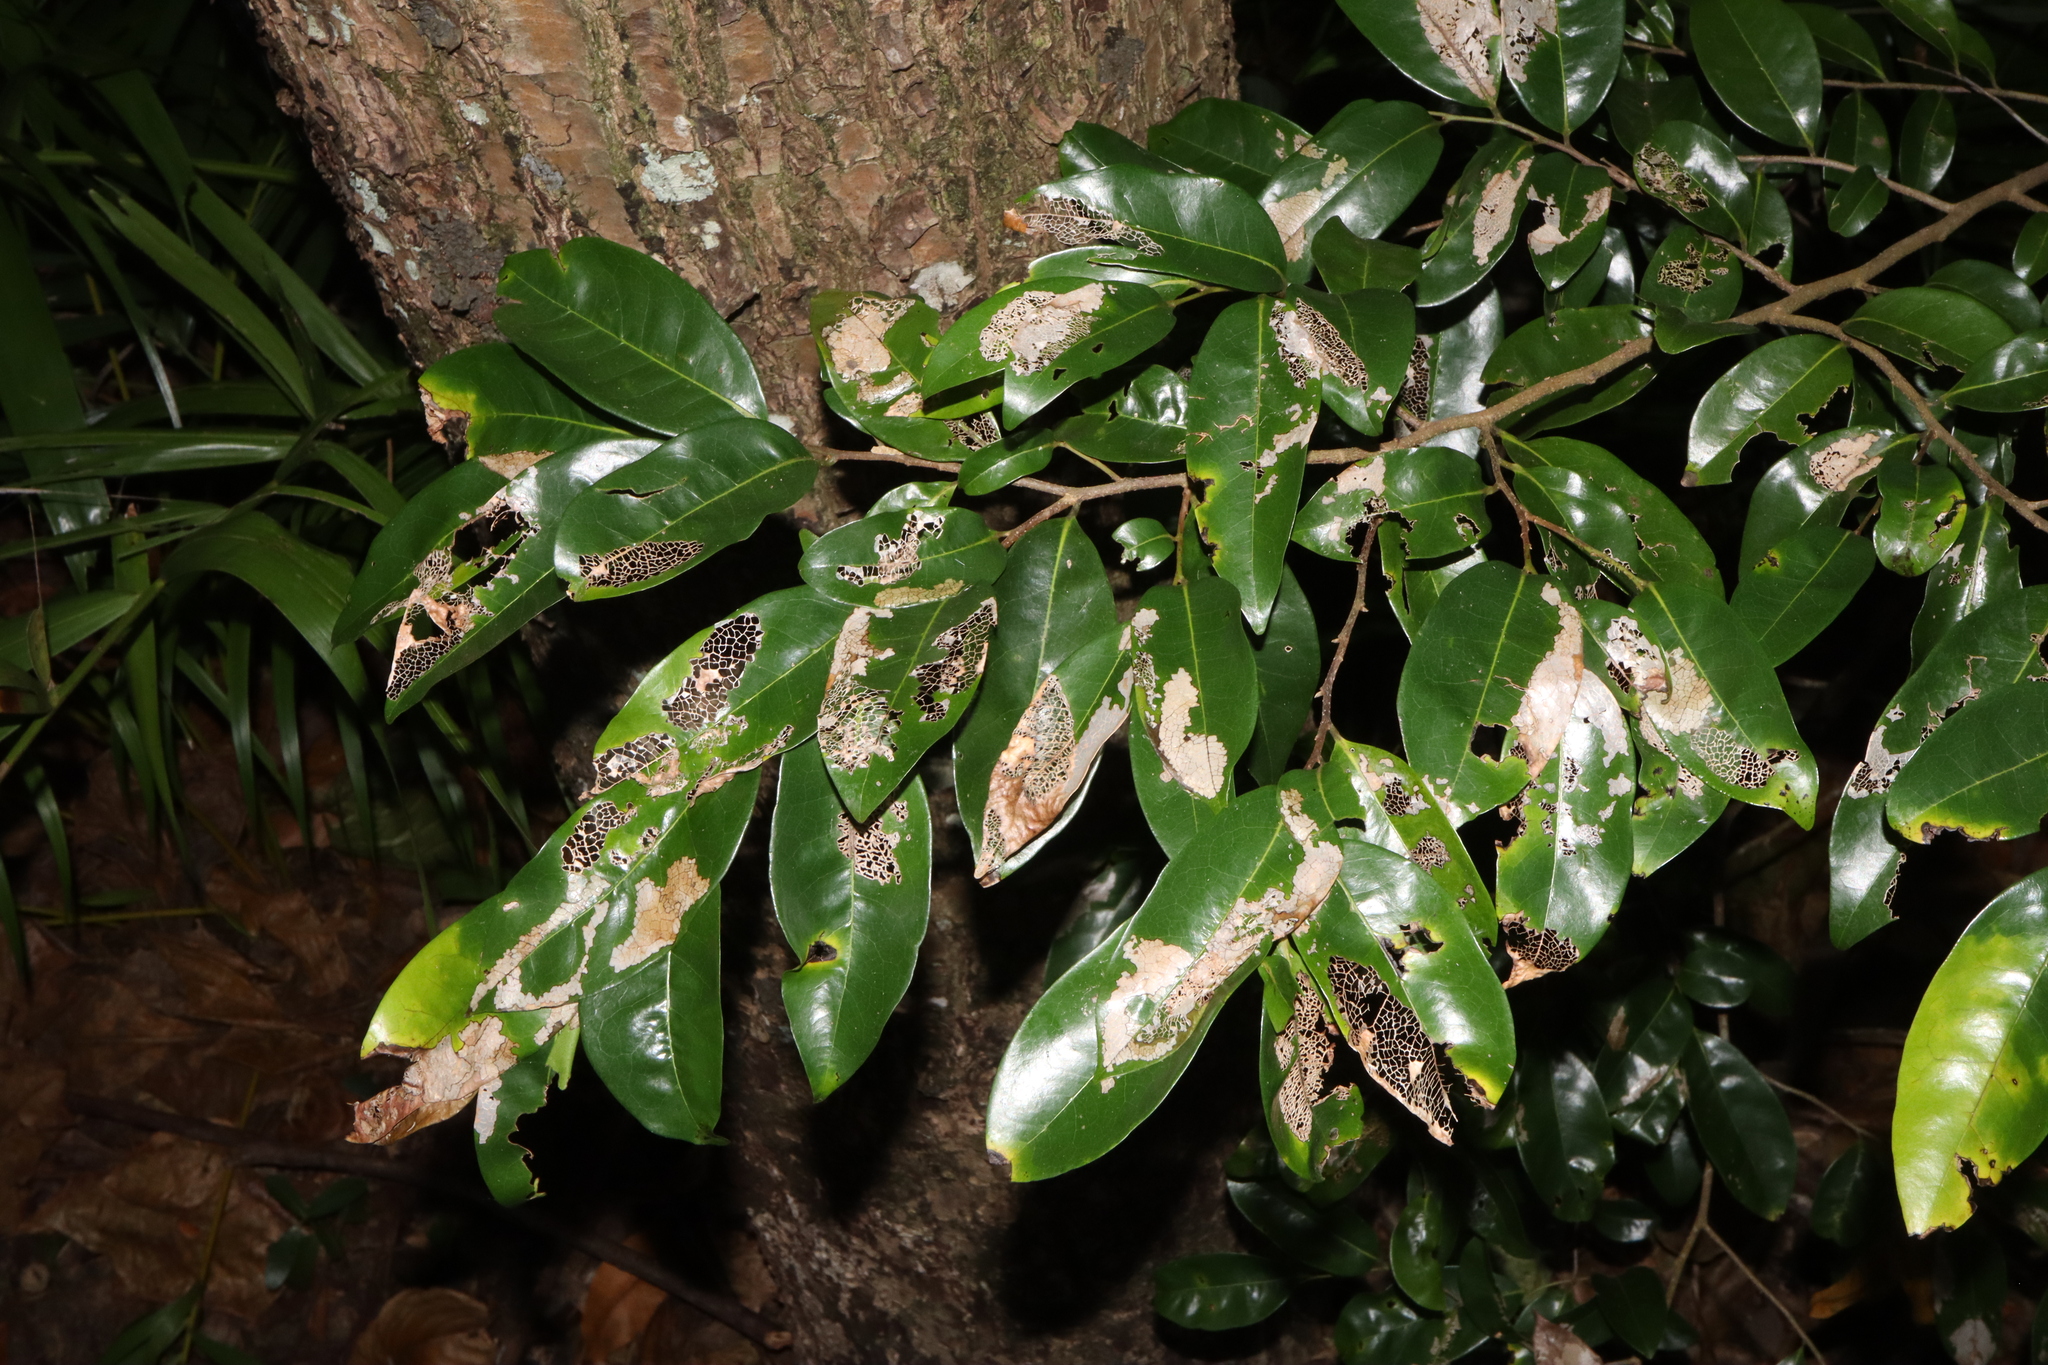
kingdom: Plantae
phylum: Tracheophyta
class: Magnoliopsida
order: Magnoliales
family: Annonaceae
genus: Hubera
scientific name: Hubera nitidissima
